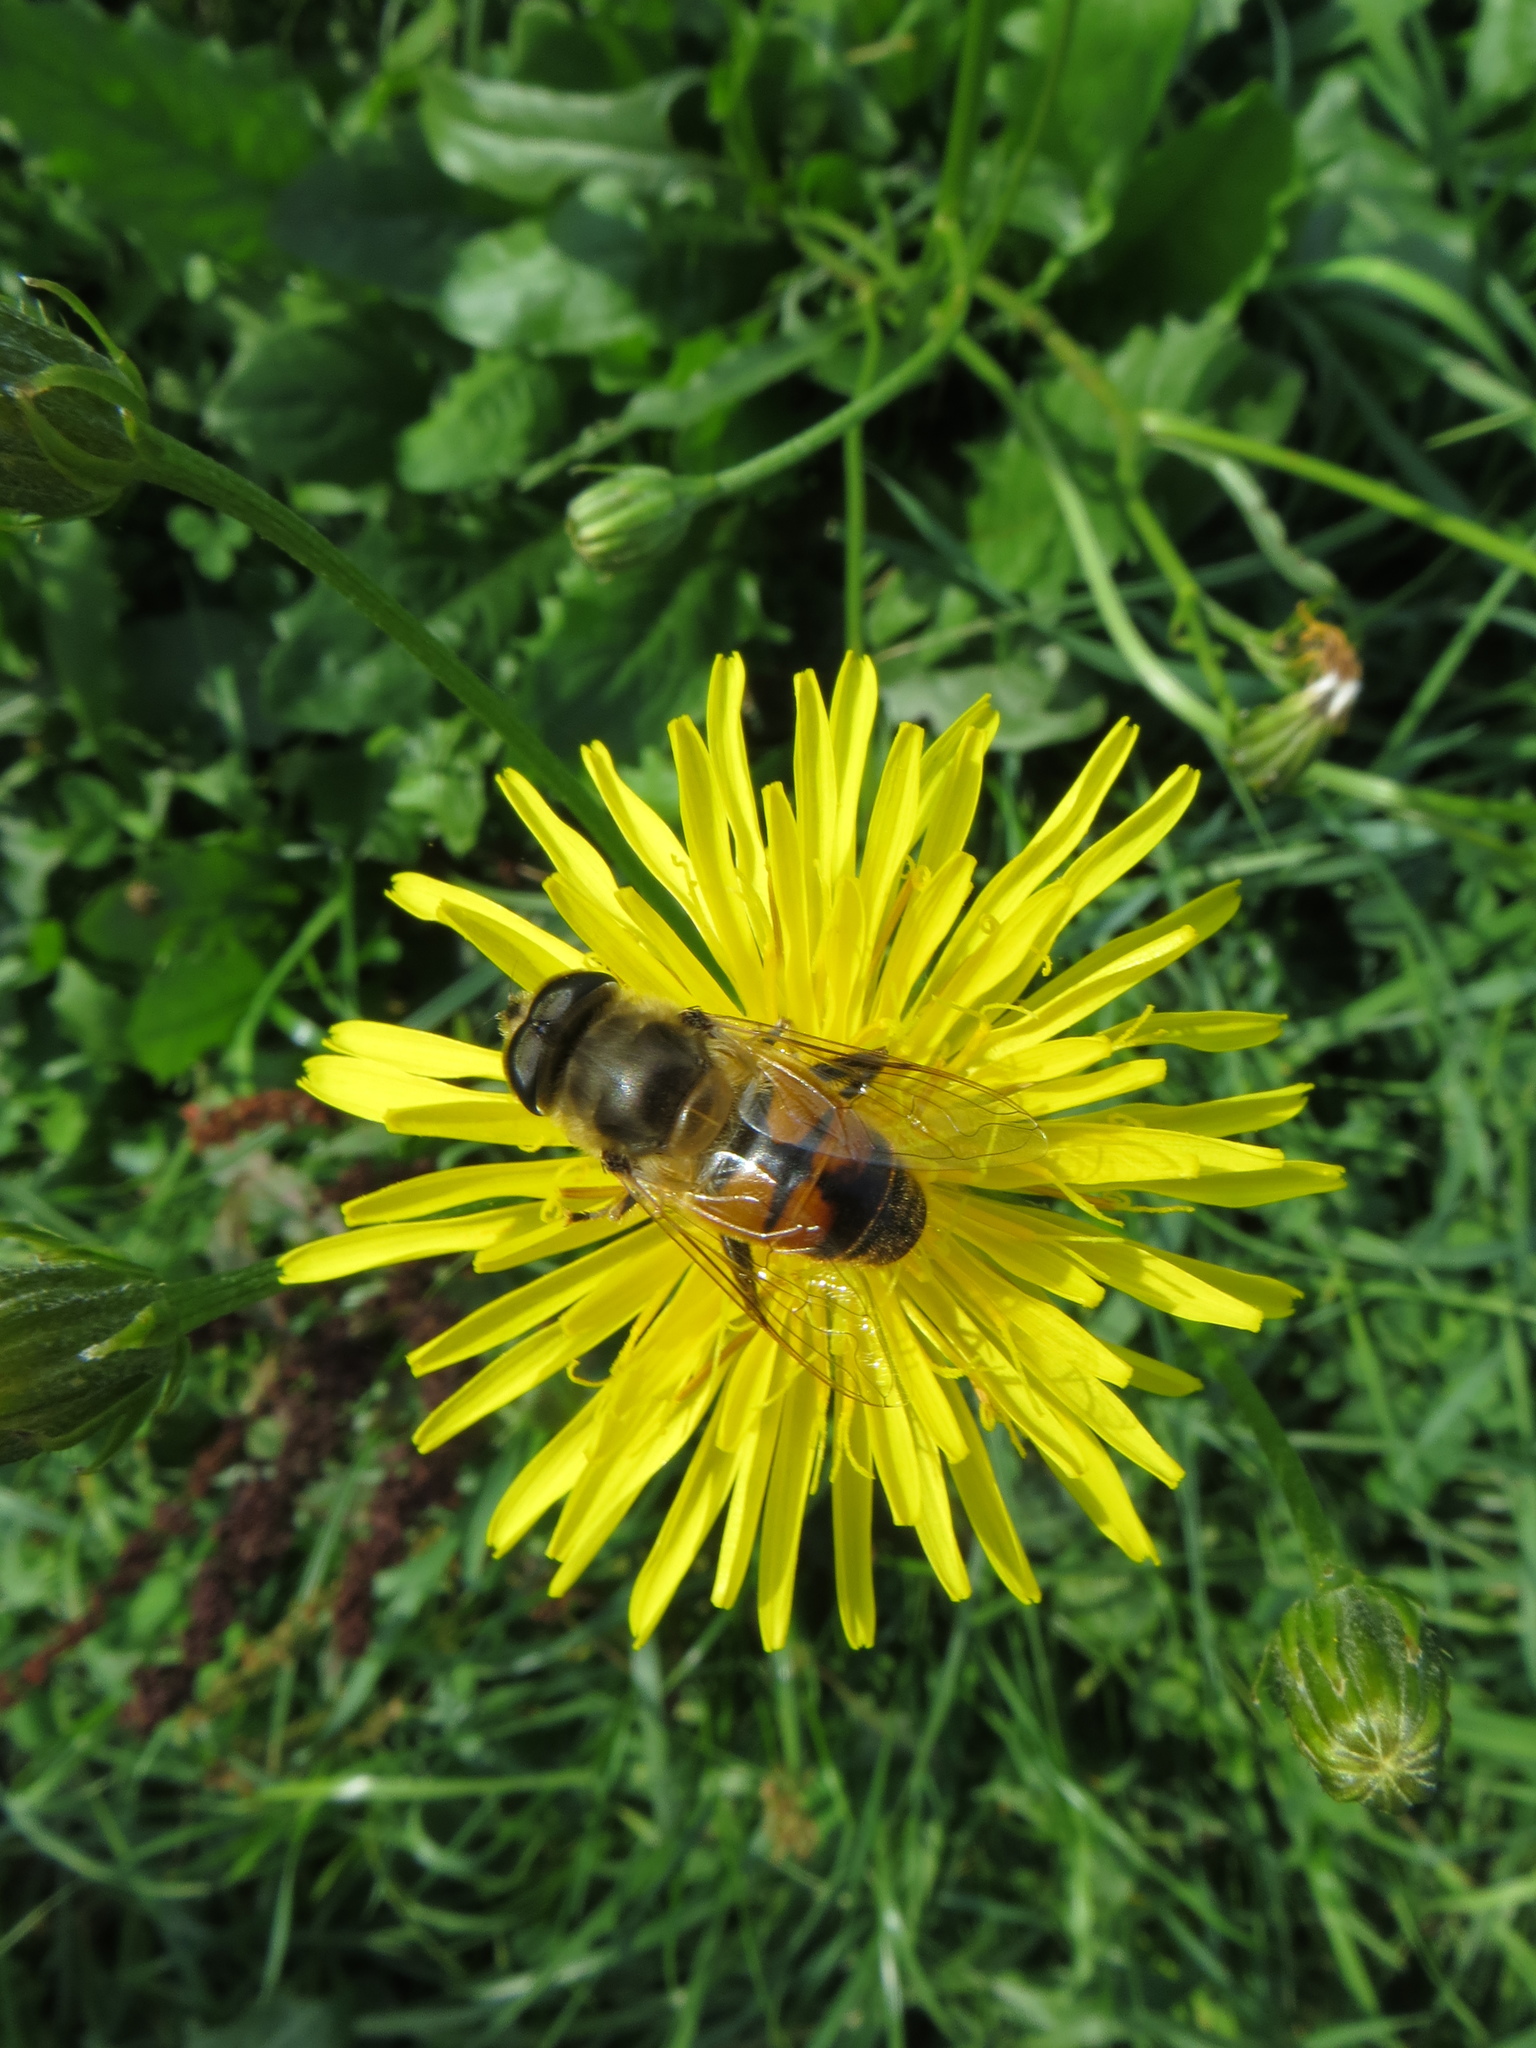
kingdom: Animalia
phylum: Arthropoda
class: Insecta
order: Diptera
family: Syrphidae
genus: Eristalis
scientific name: Eristalis tenax
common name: Drone fly
